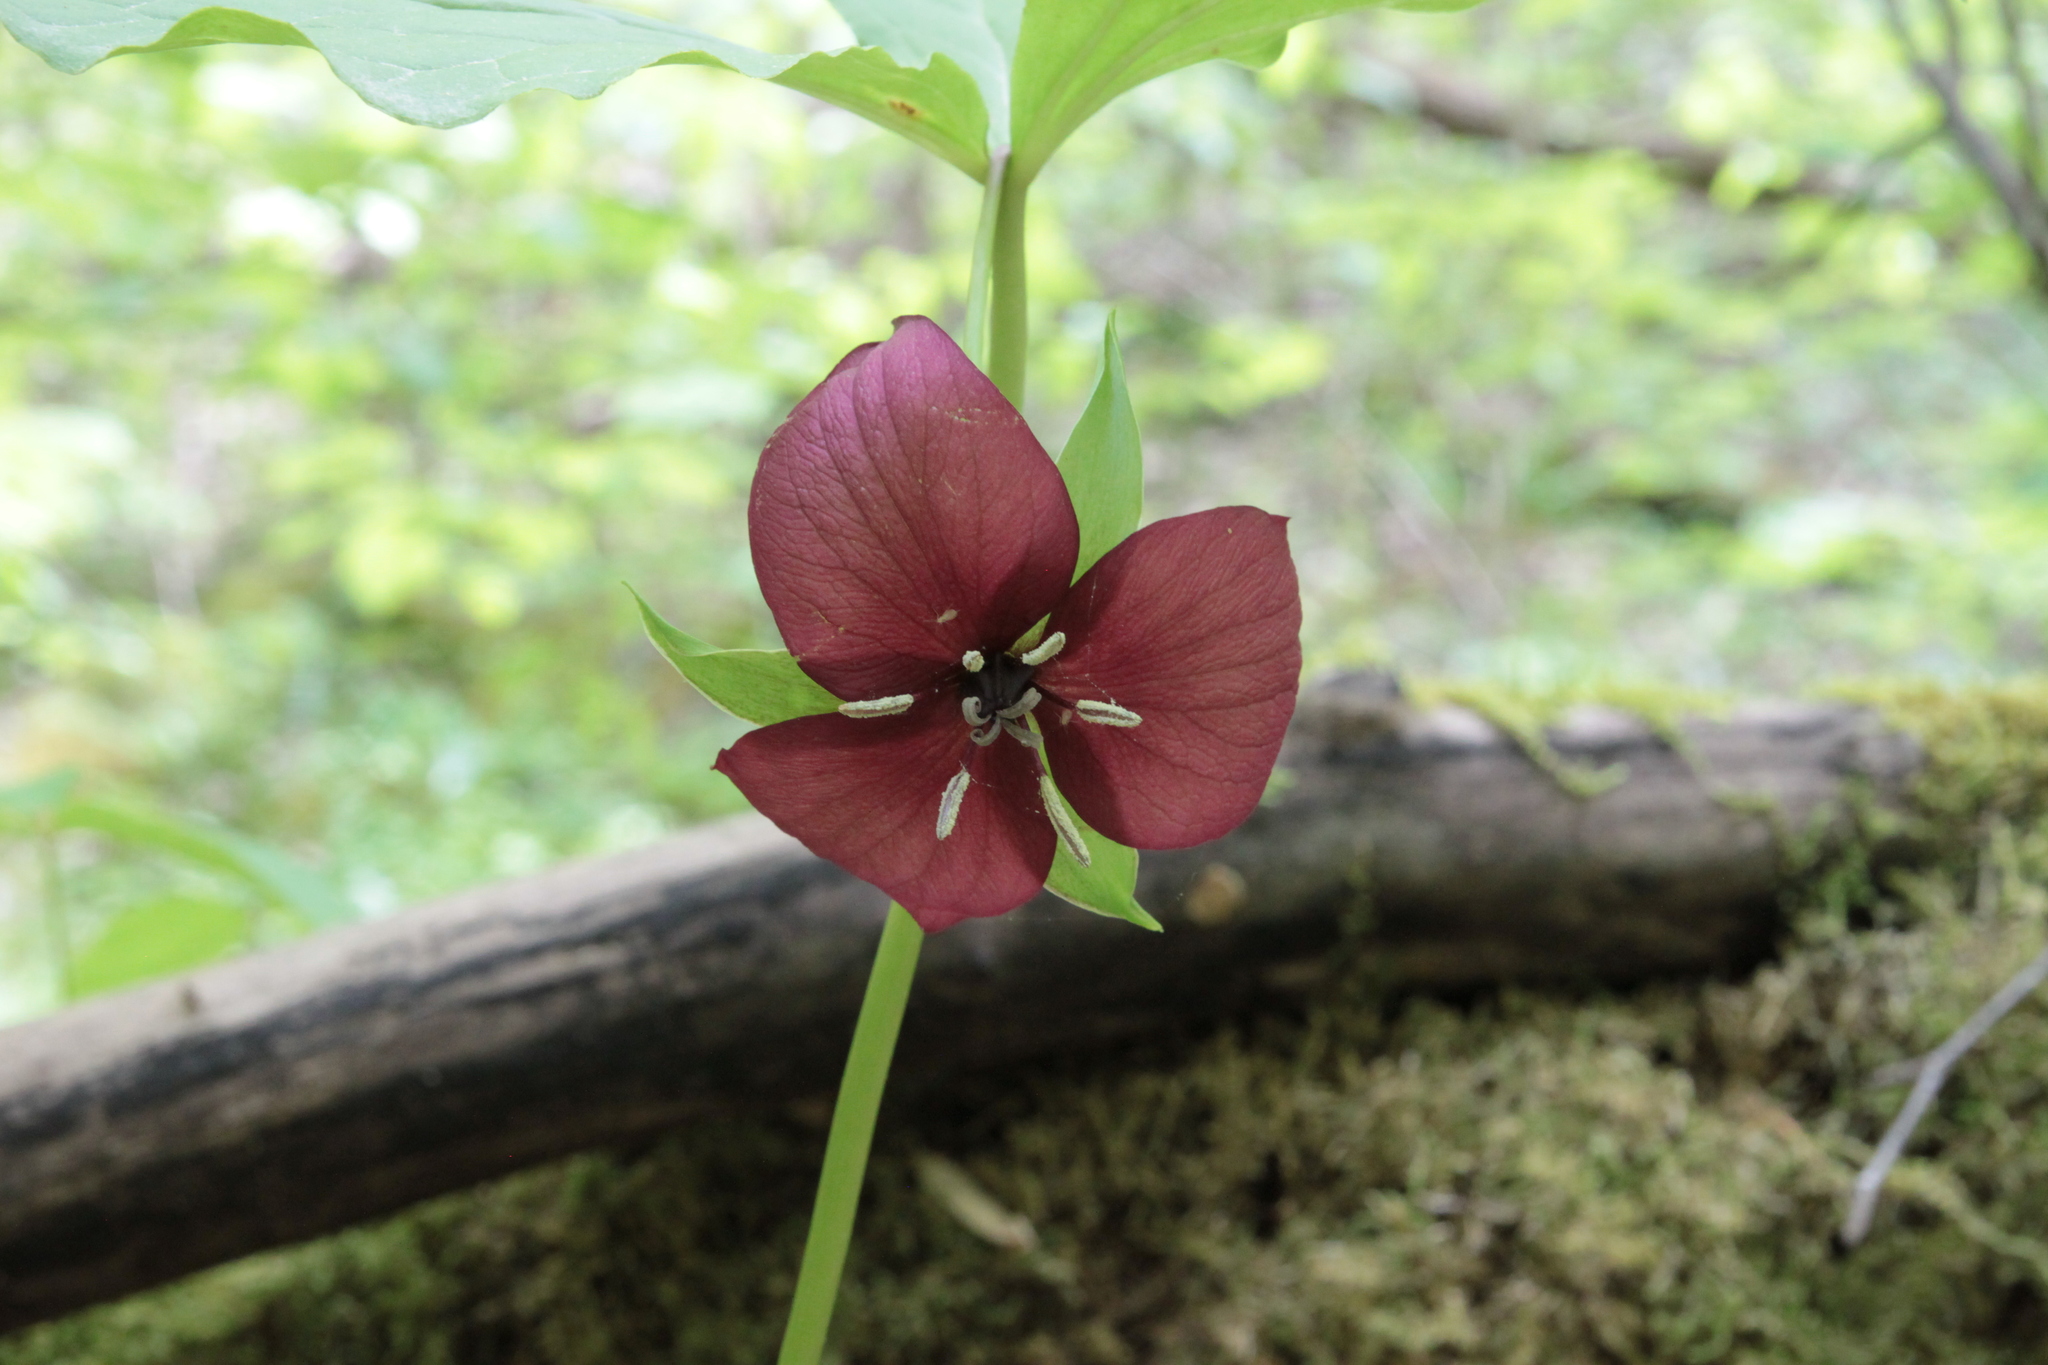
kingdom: Plantae
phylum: Tracheophyta
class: Liliopsida
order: Liliales
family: Melanthiaceae
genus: Trillium
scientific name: Trillium vaseyi
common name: Sweet trillium
